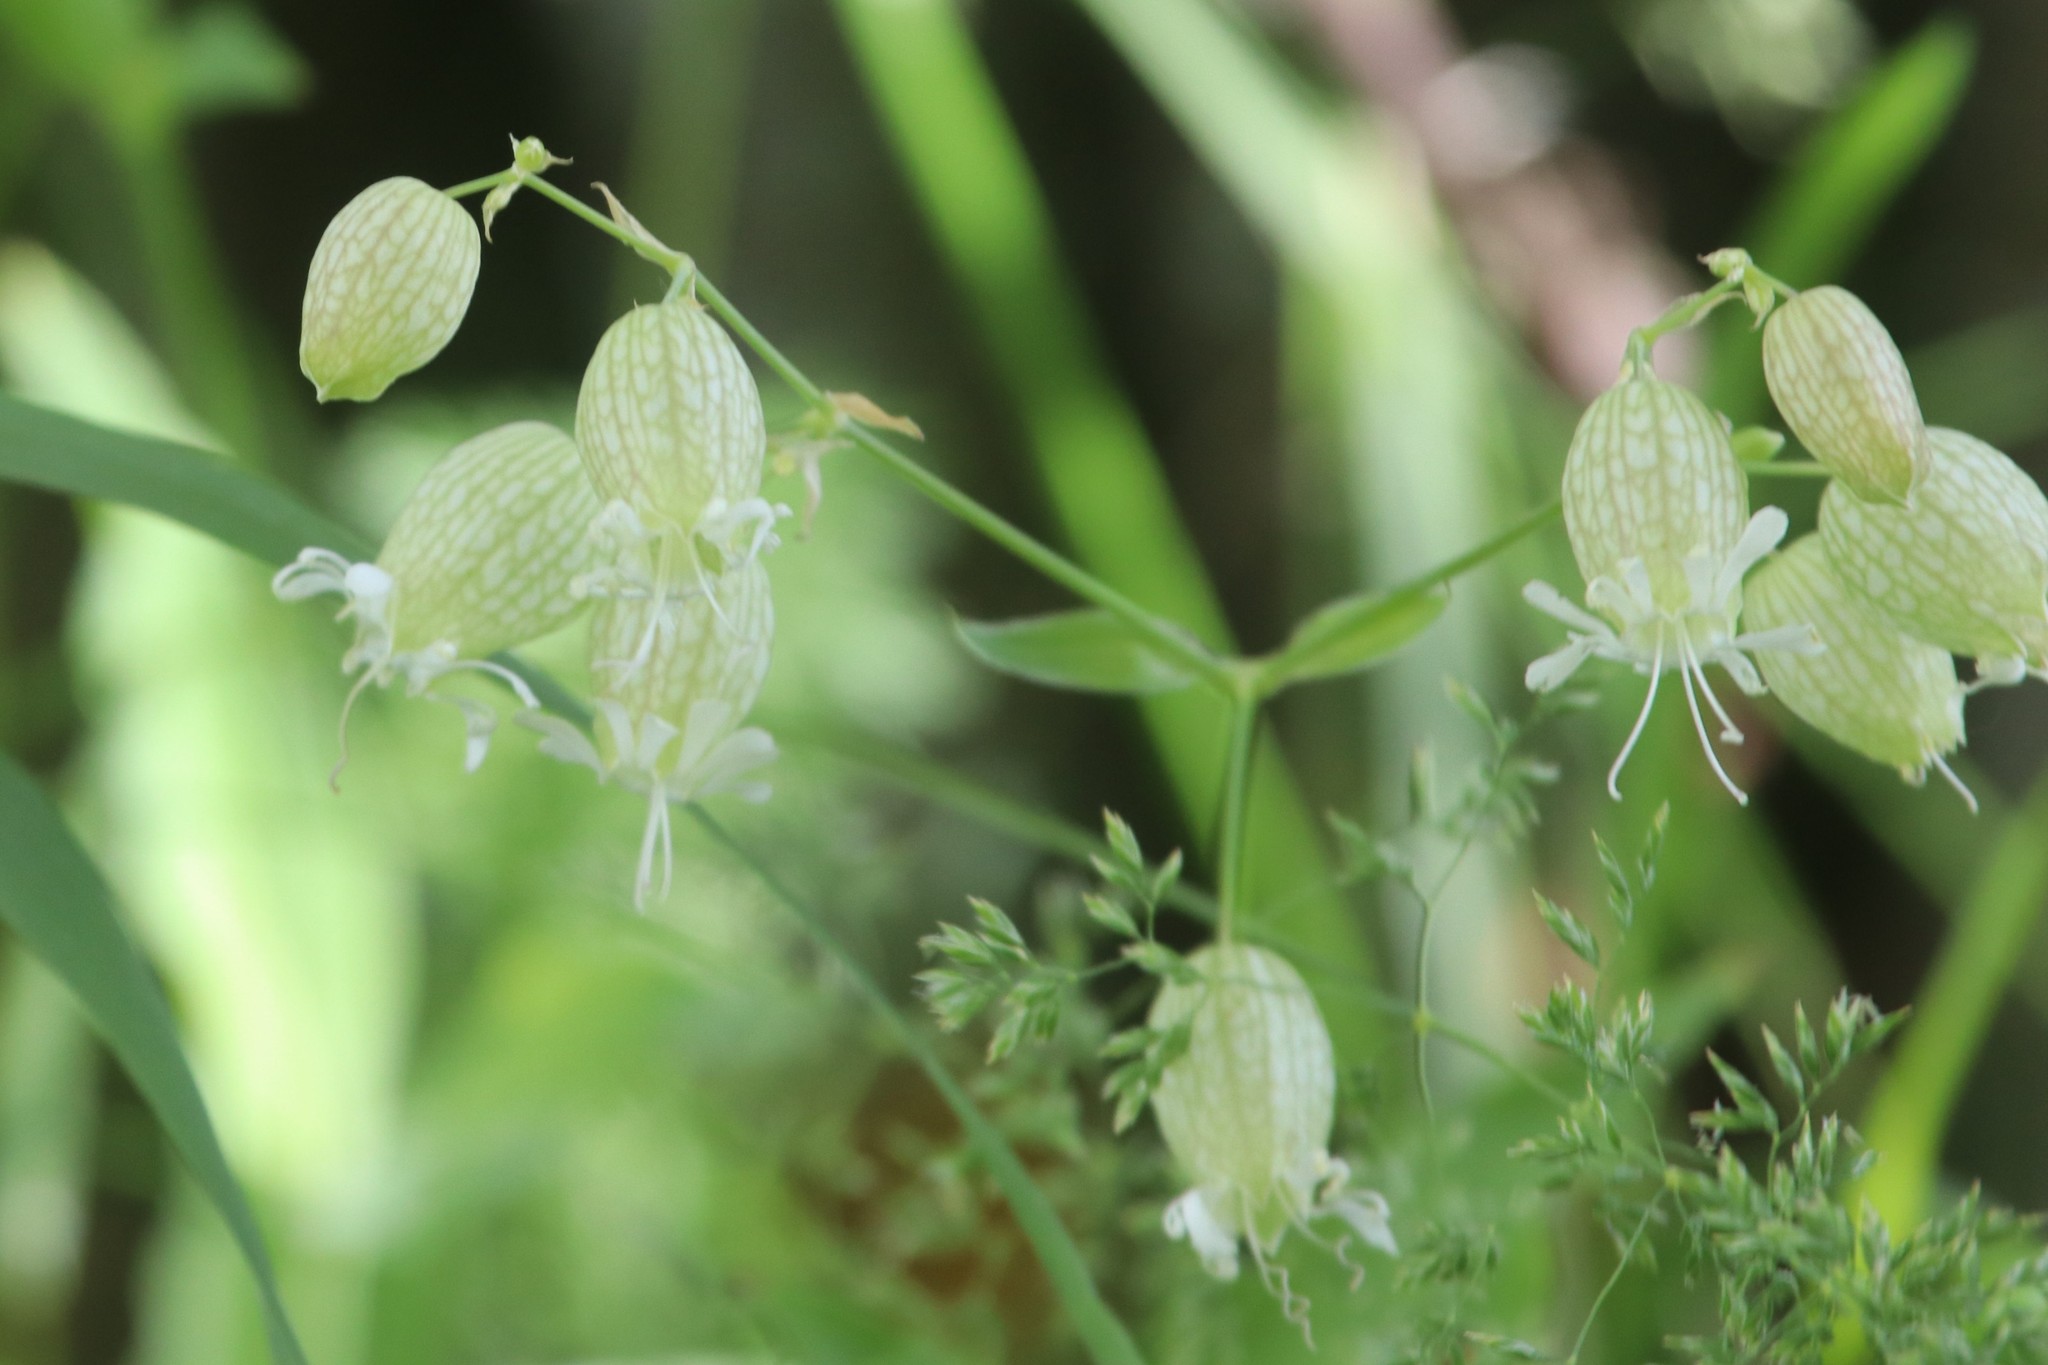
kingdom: Plantae
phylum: Tracheophyta
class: Magnoliopsida
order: Caryophyllales
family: Caryophyllaceae
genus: Silene
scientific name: Silene vulgaris
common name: Bladder campion
